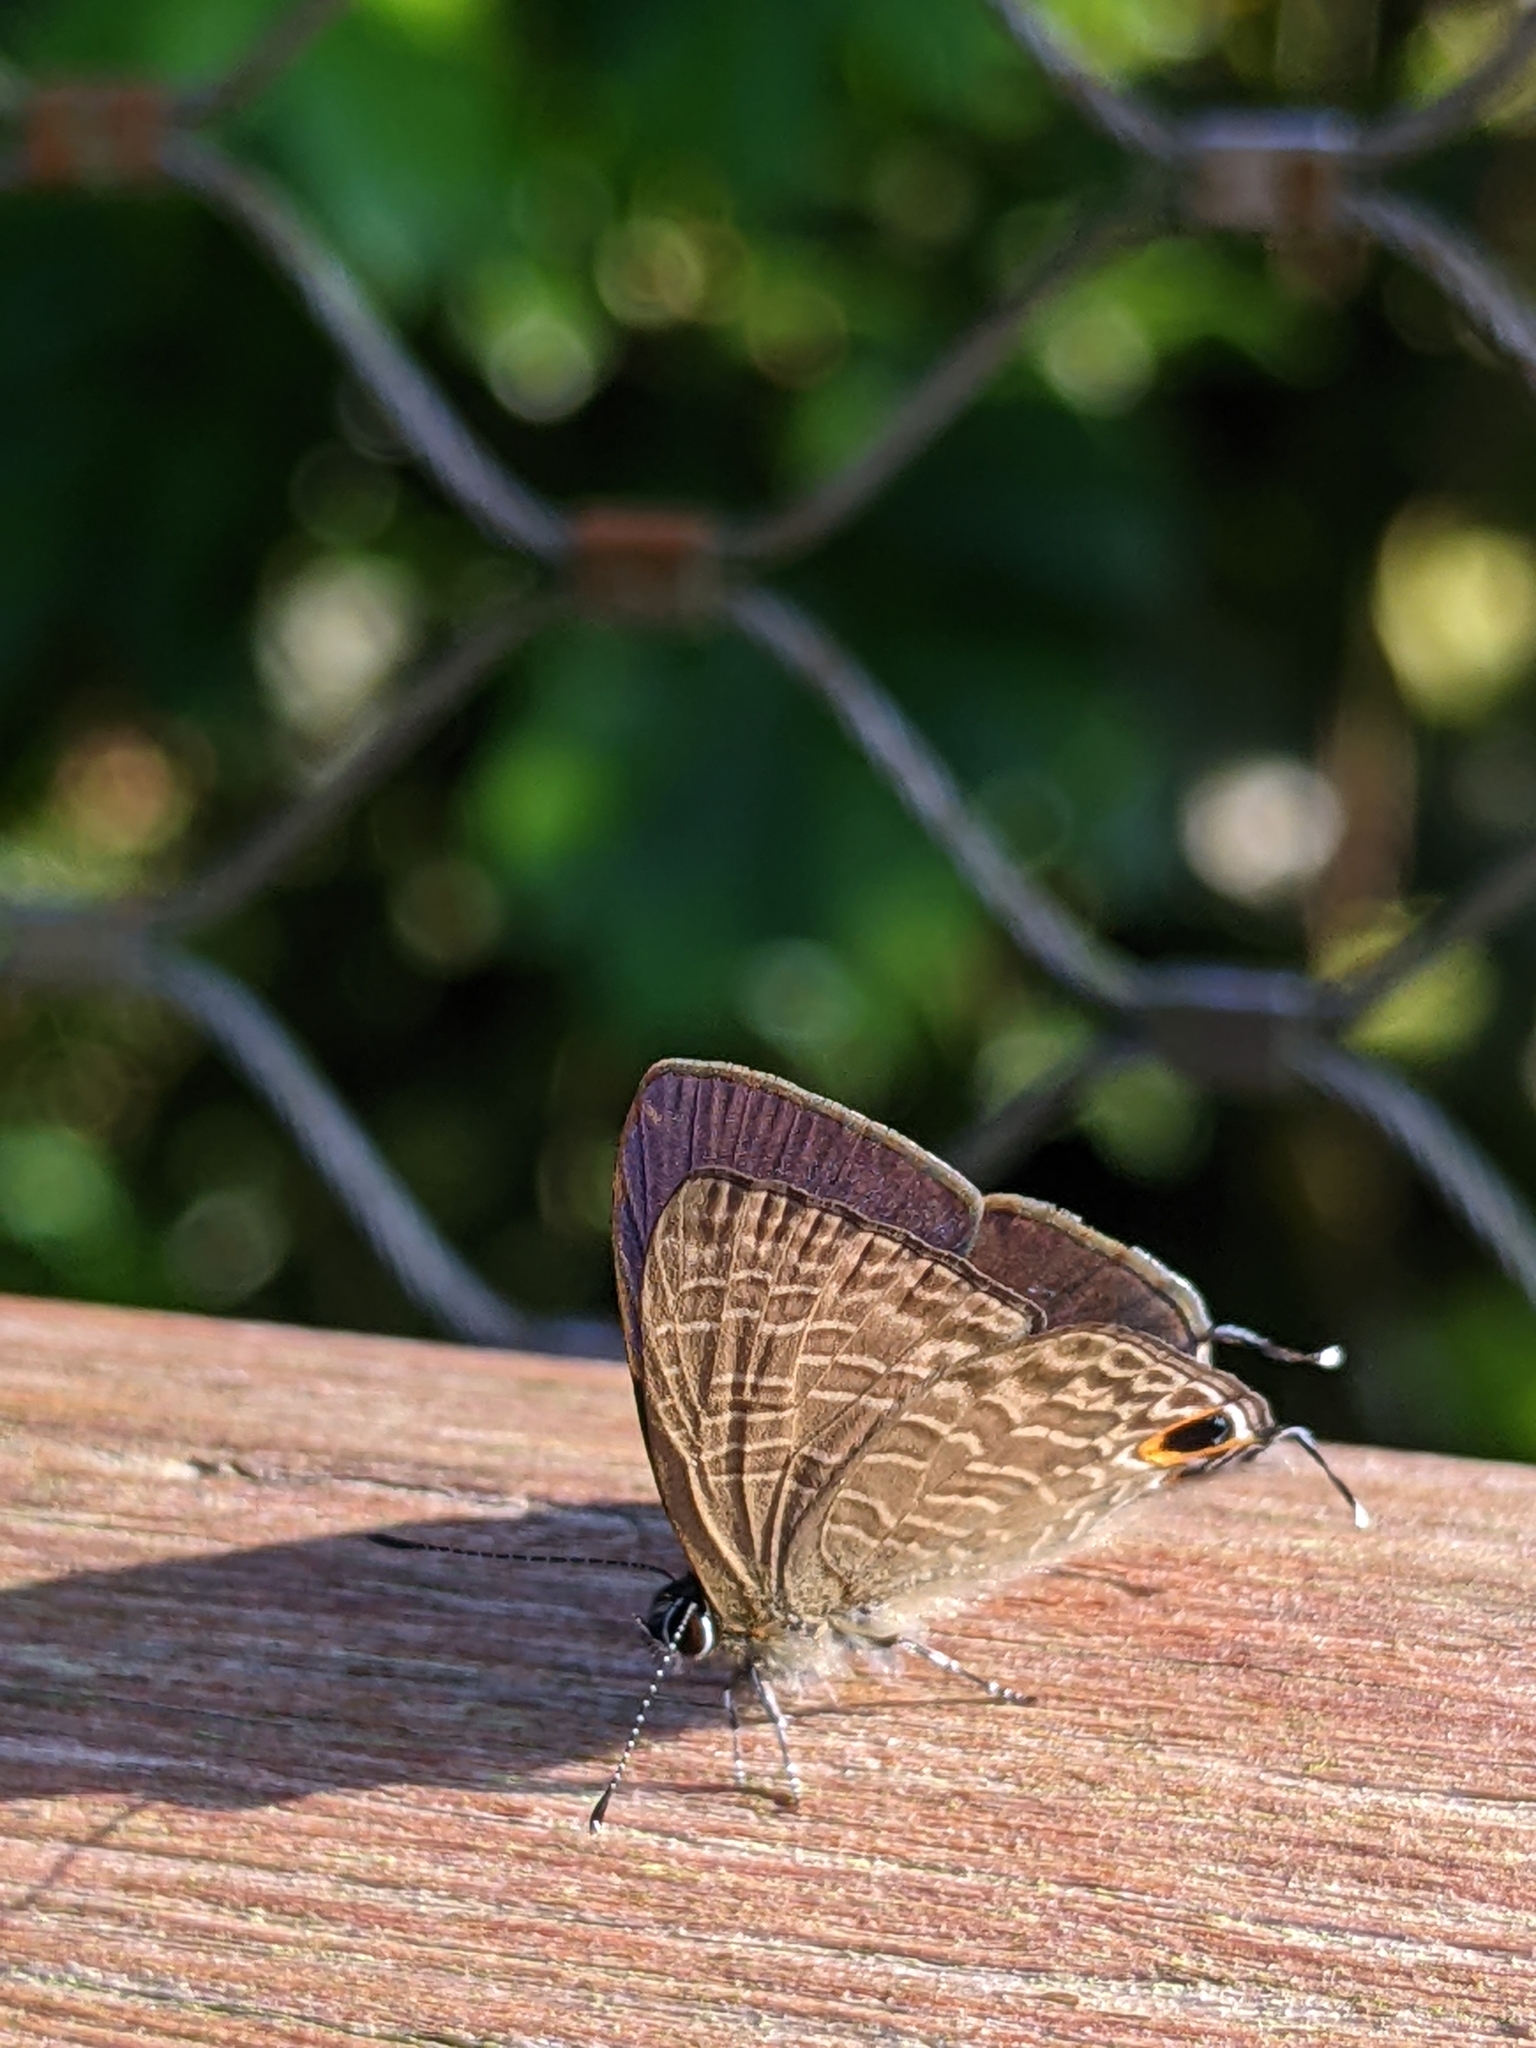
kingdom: Animalia
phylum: Arthropoda
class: Insecta
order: Lepidoptera
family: Lycaenidae
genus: Ionolyce
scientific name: Ionolyce helicon
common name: Pointed line blue
